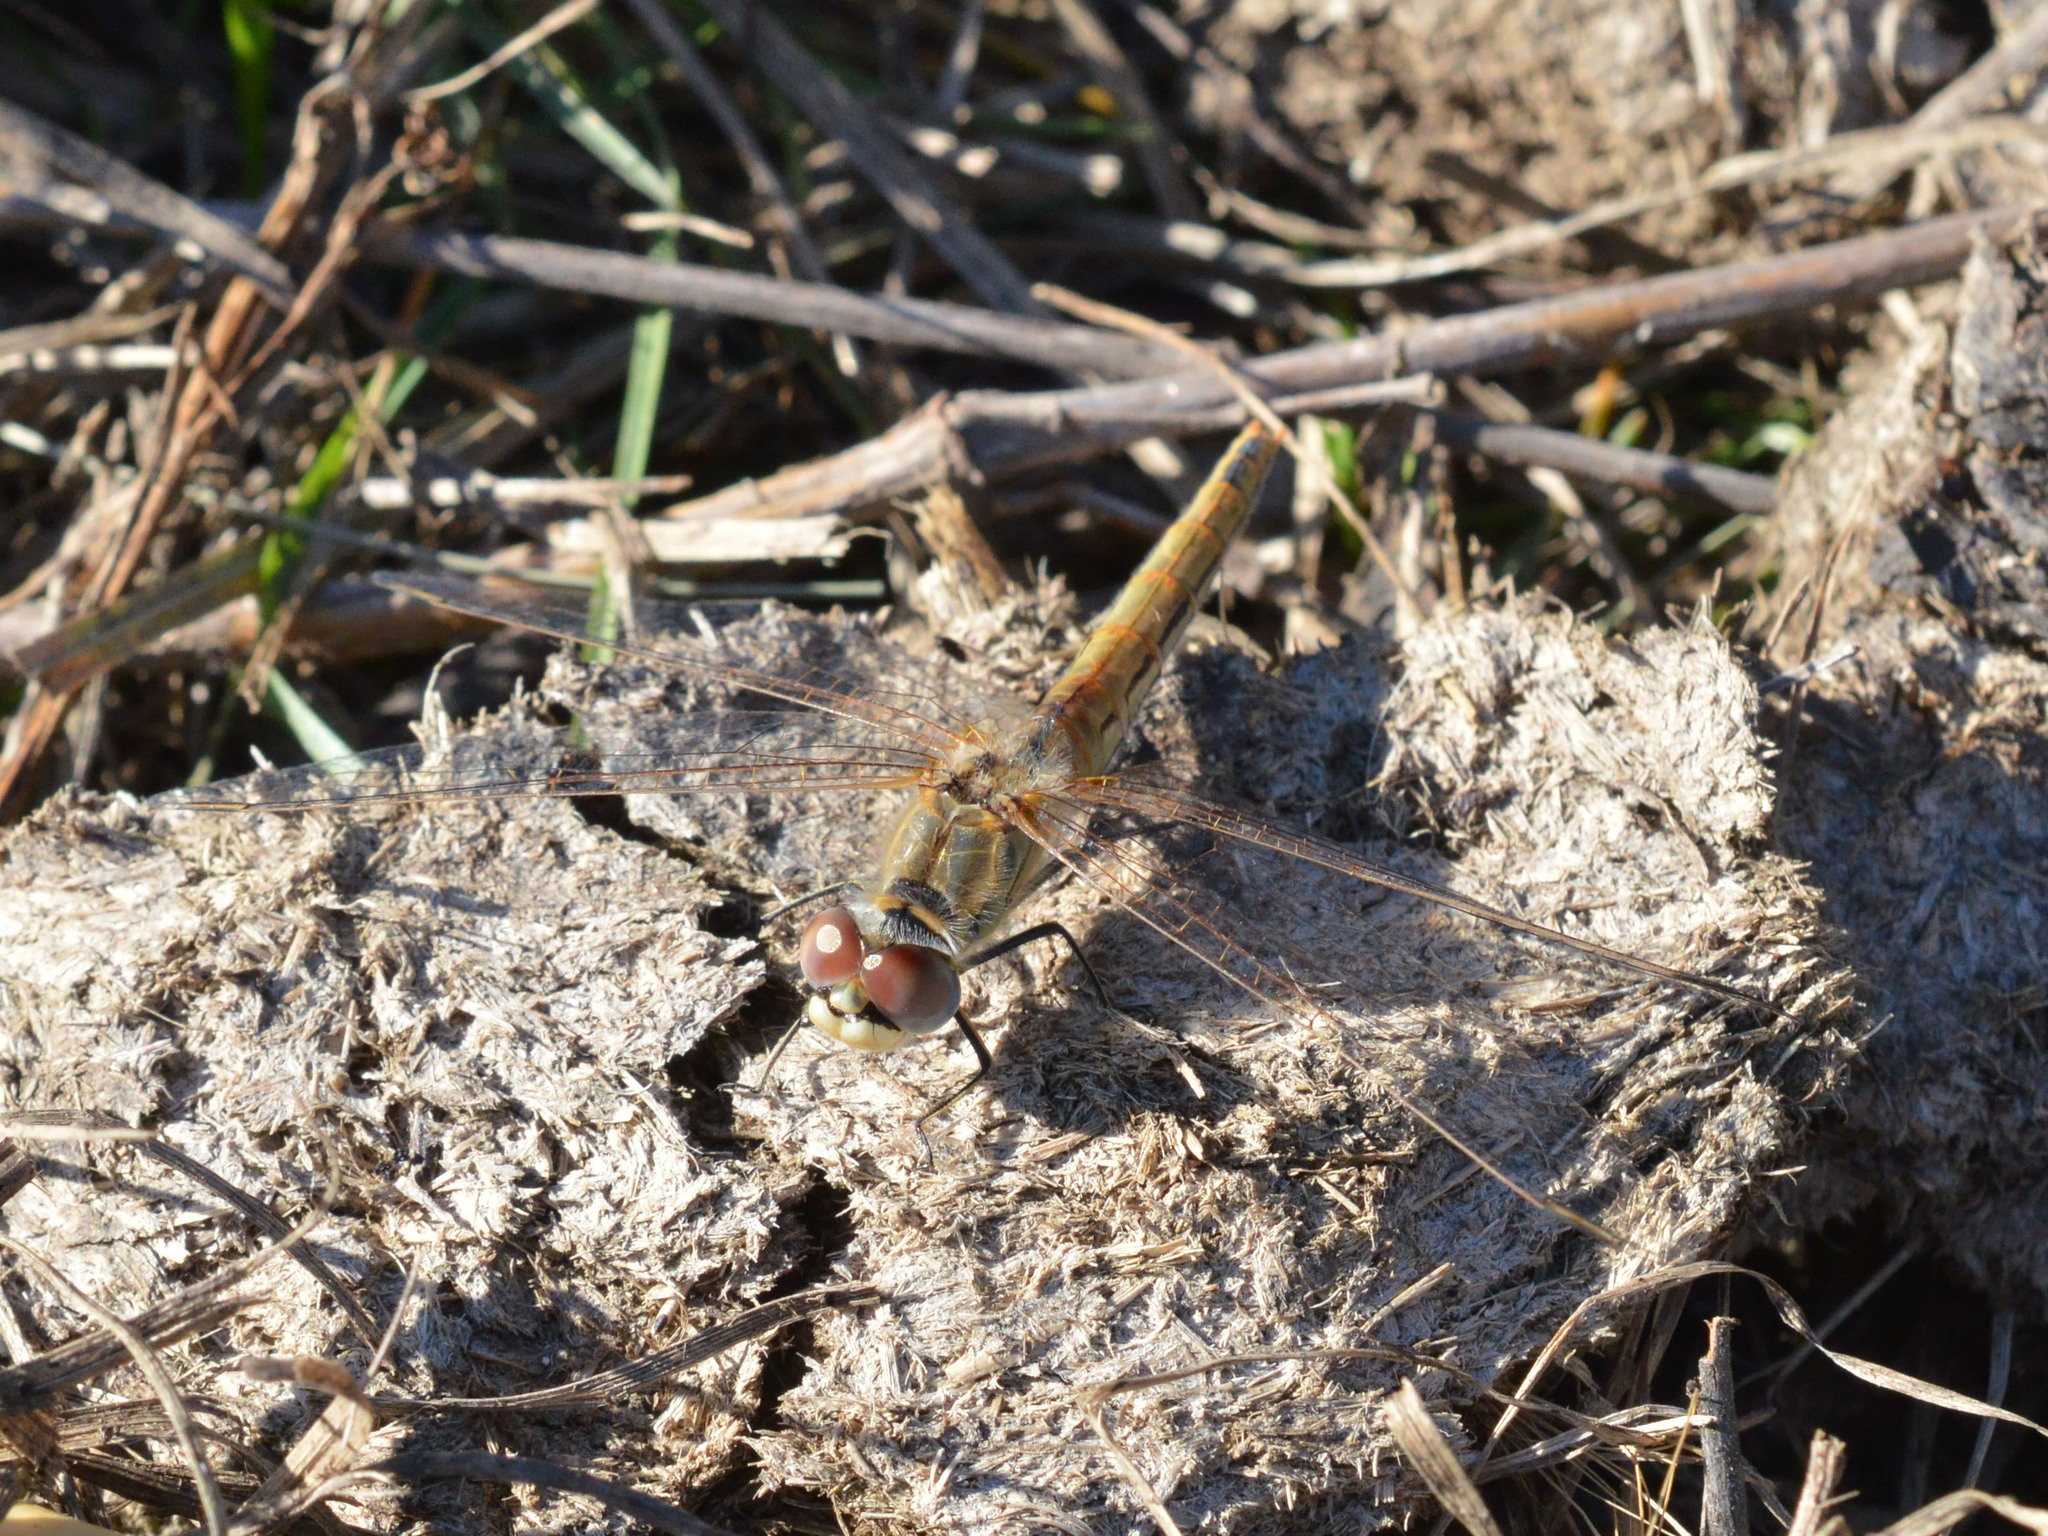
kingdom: Animalia
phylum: Arthropoda
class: Insecta
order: Odonata
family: Libellulidae
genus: Sympetrum
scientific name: Sympetrum fonscolombii
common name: Red-veined darter
